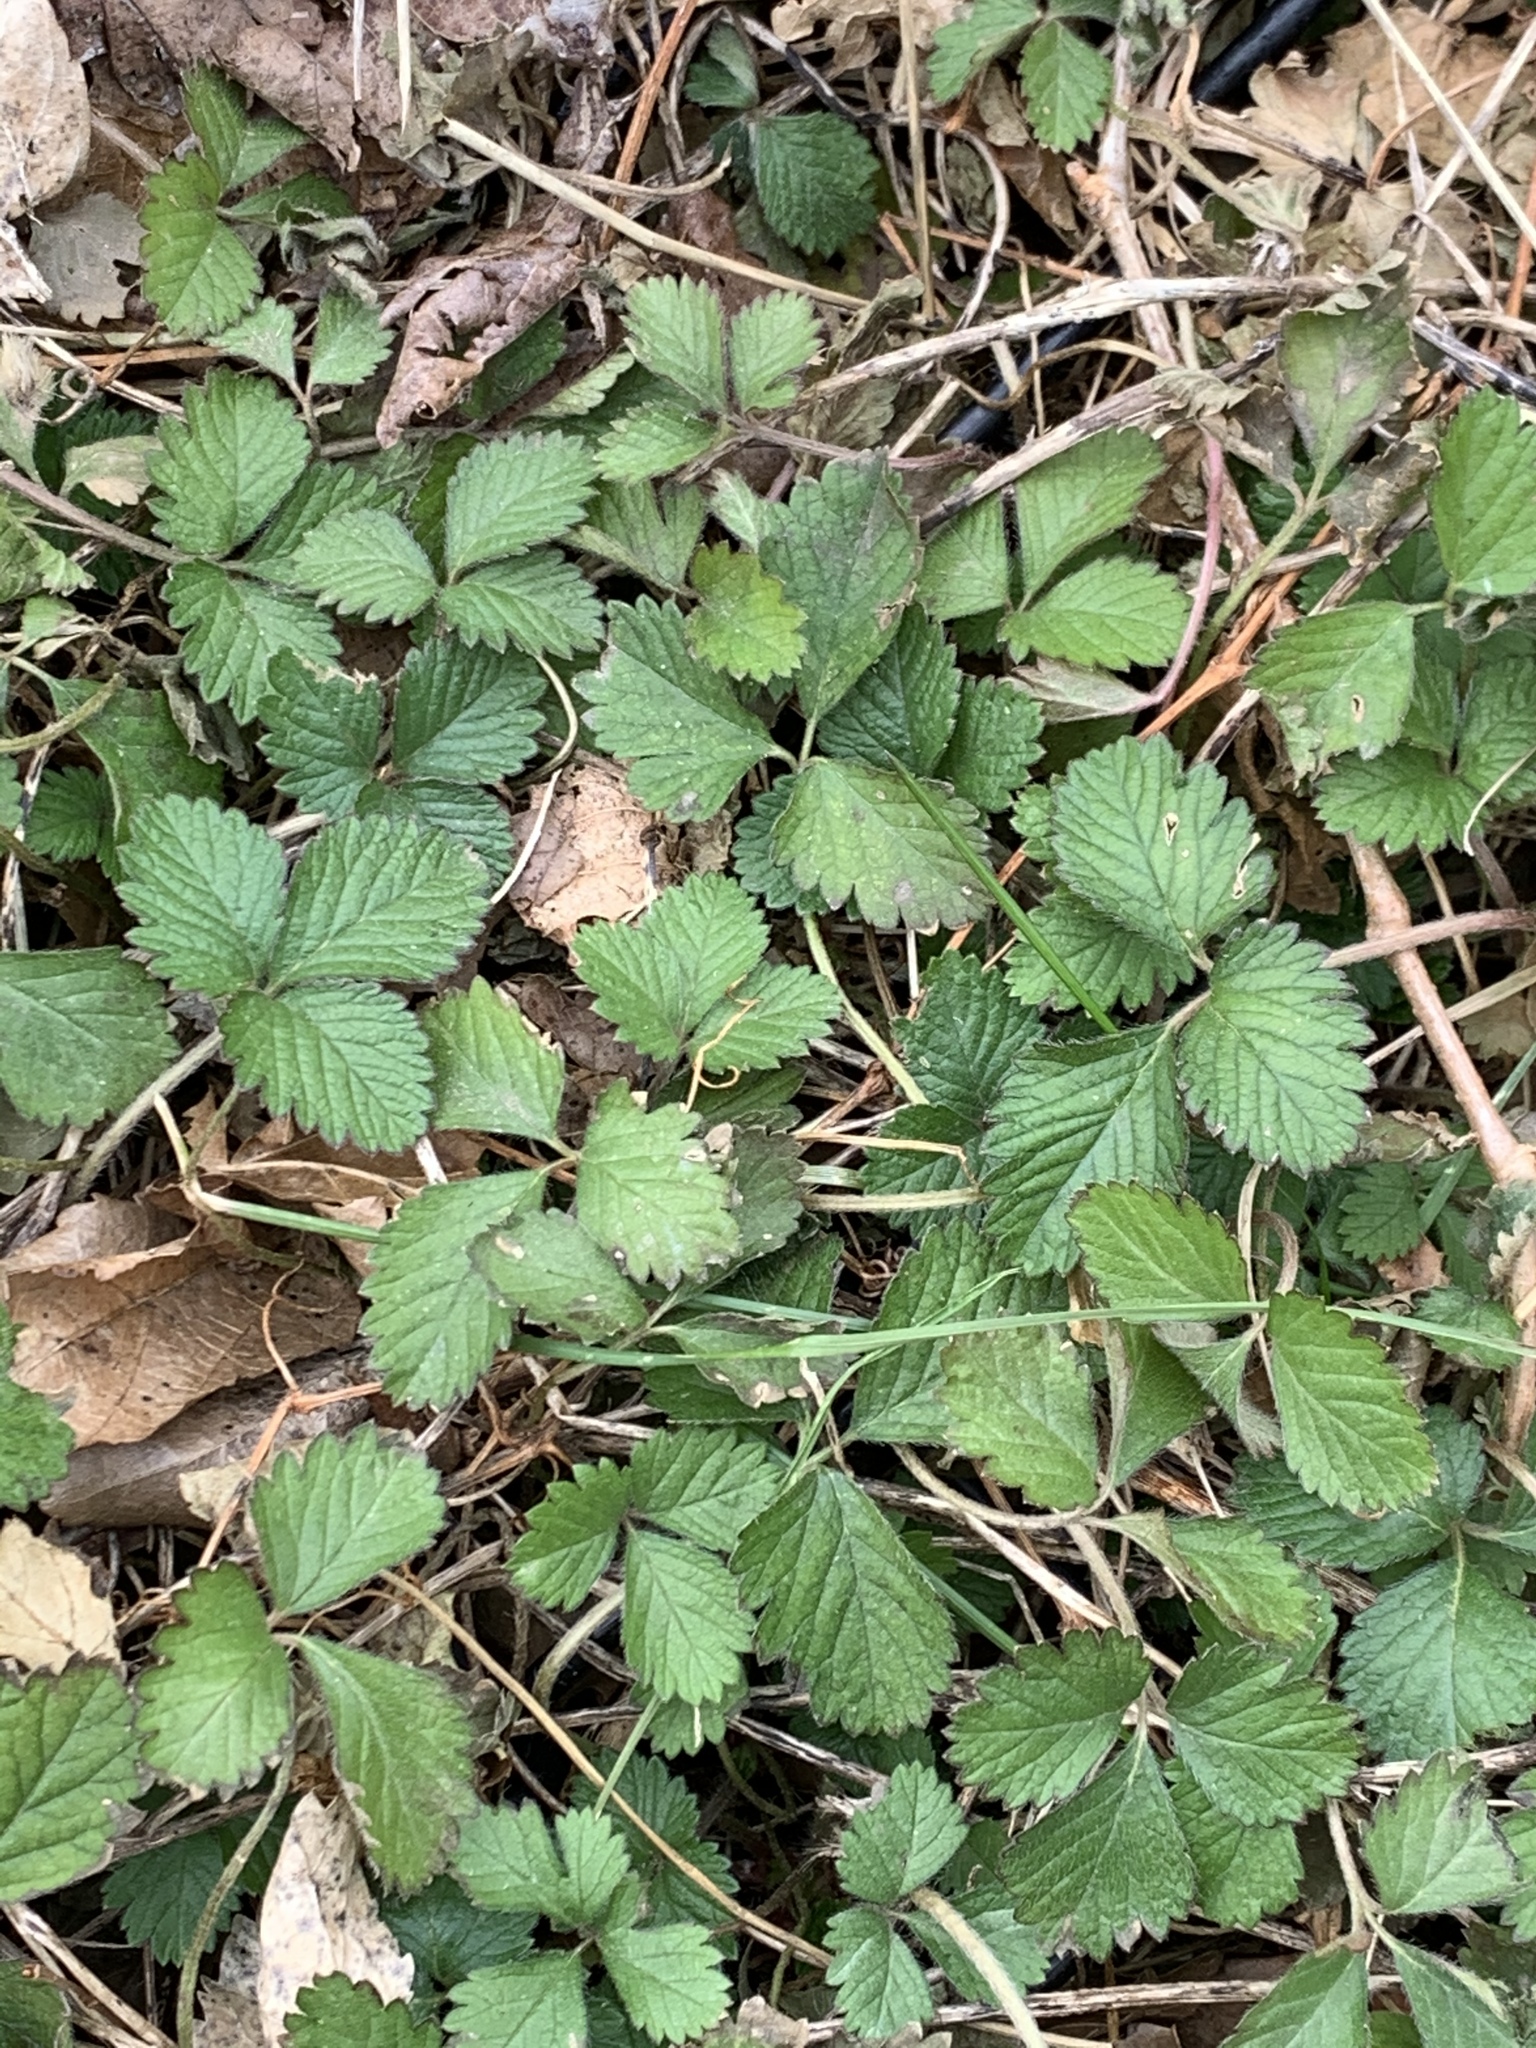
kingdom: Plantae
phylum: Tracheophyta
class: Magnoliopsida
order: Rosales
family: Rosaceae
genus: Potentilla
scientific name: Potentilla indica
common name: Yellow-flowered strawberry
